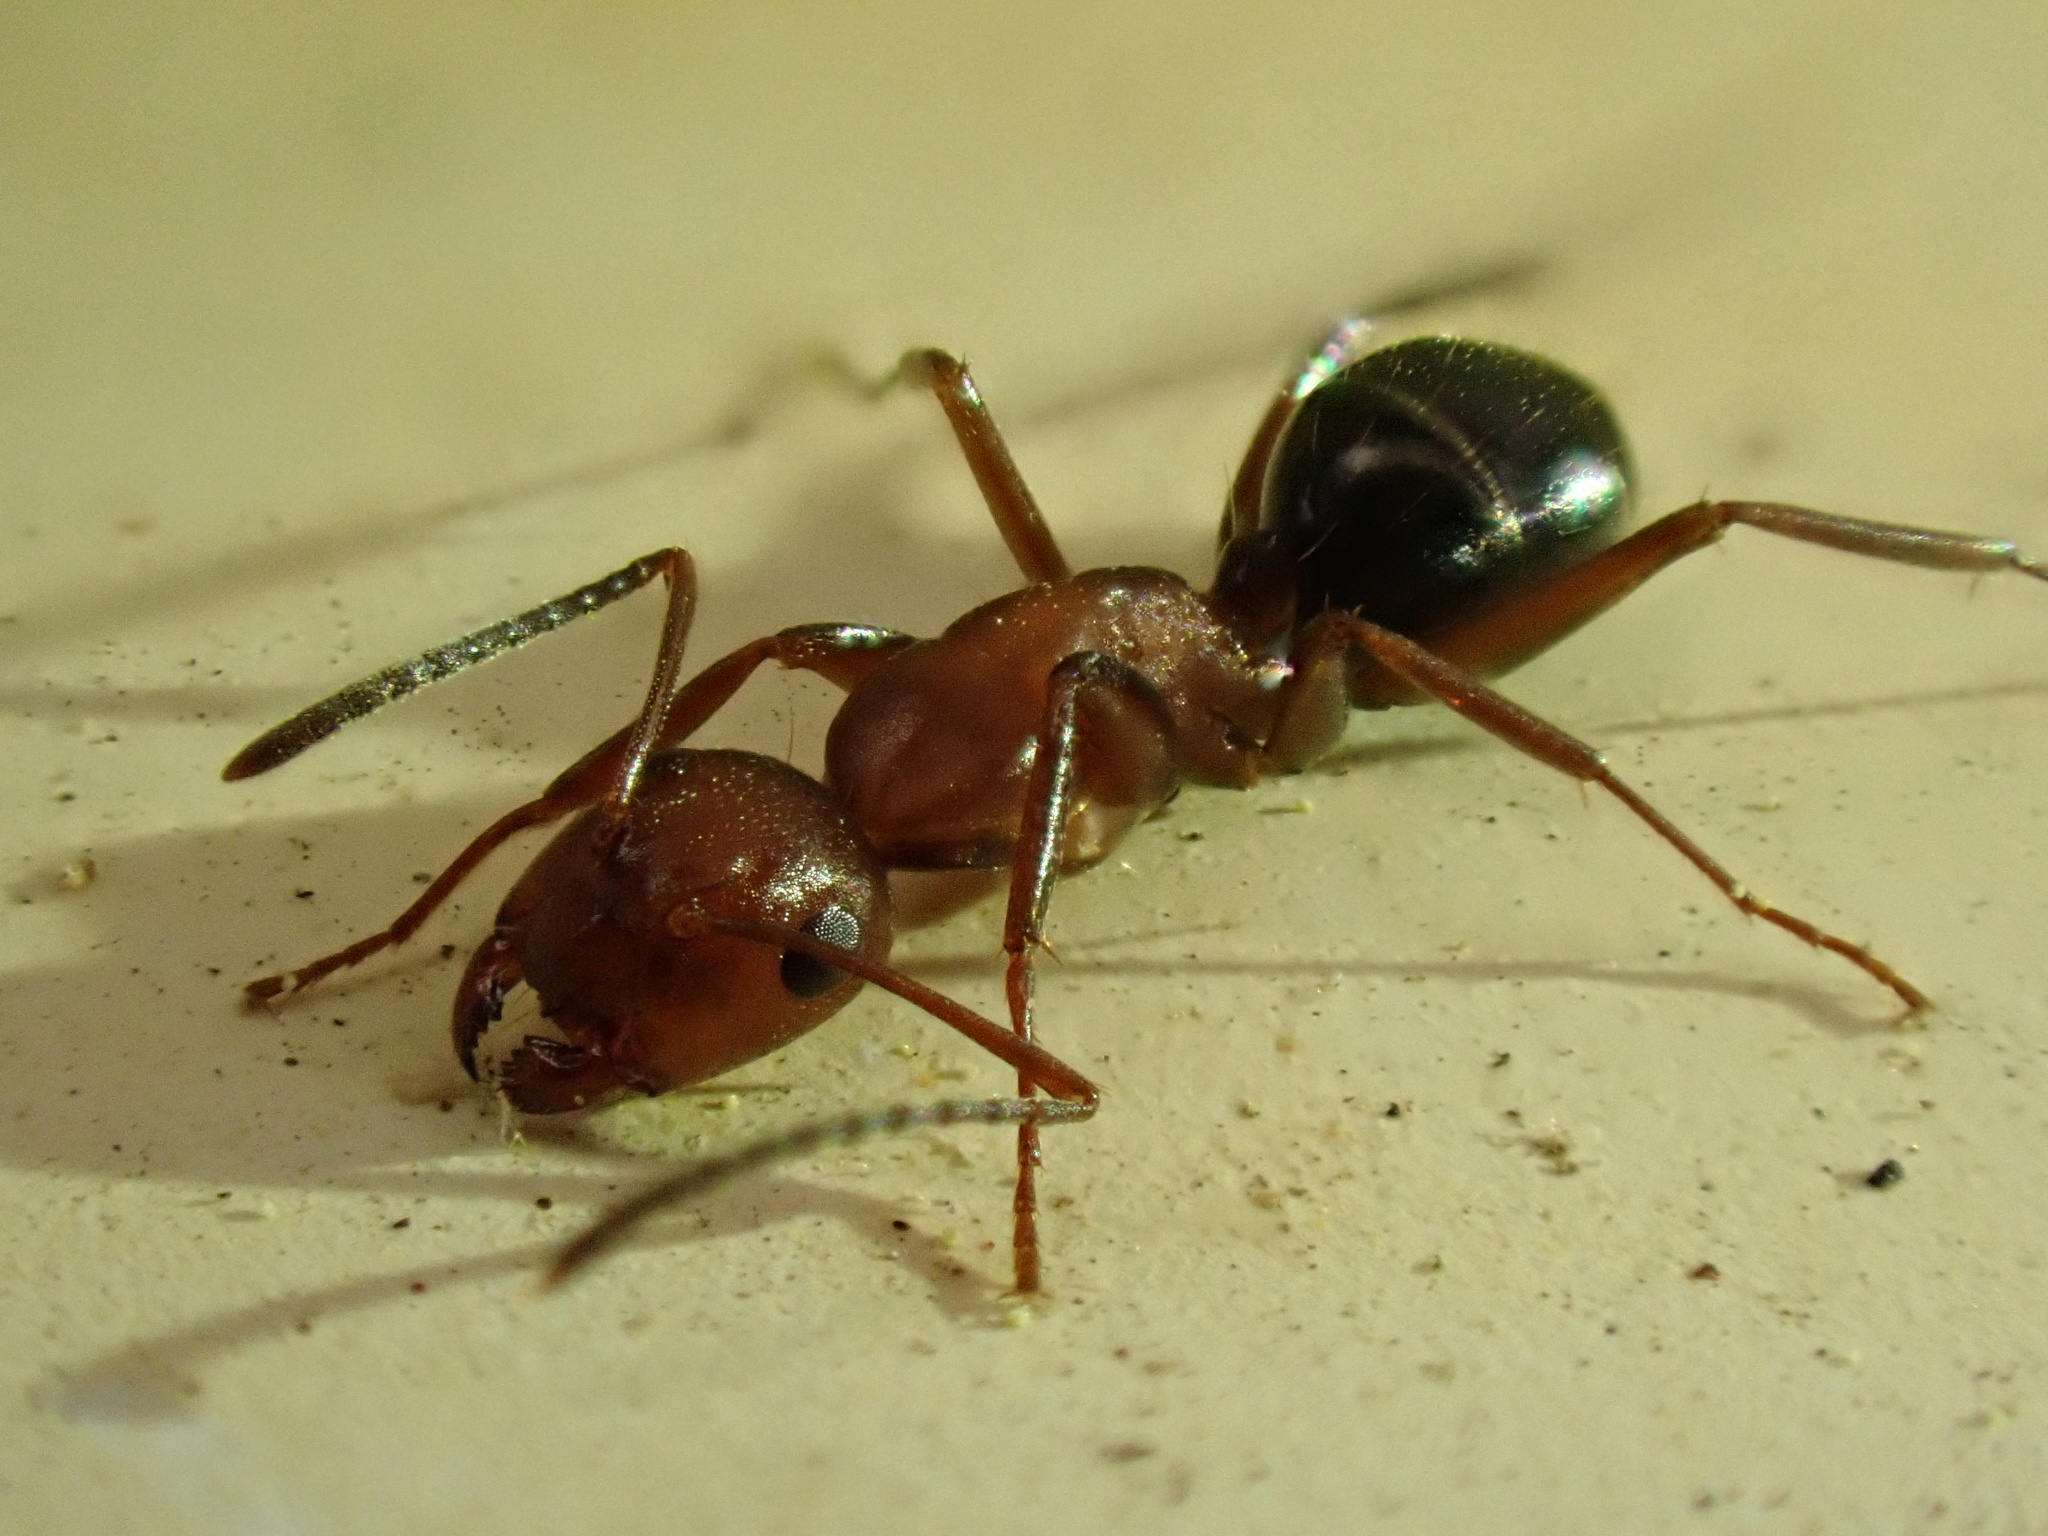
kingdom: Animalia
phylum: Arthropoda
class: Insecta
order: Hymenoptera
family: Formicidae
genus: Camponotus
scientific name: Camponotus decipiens
